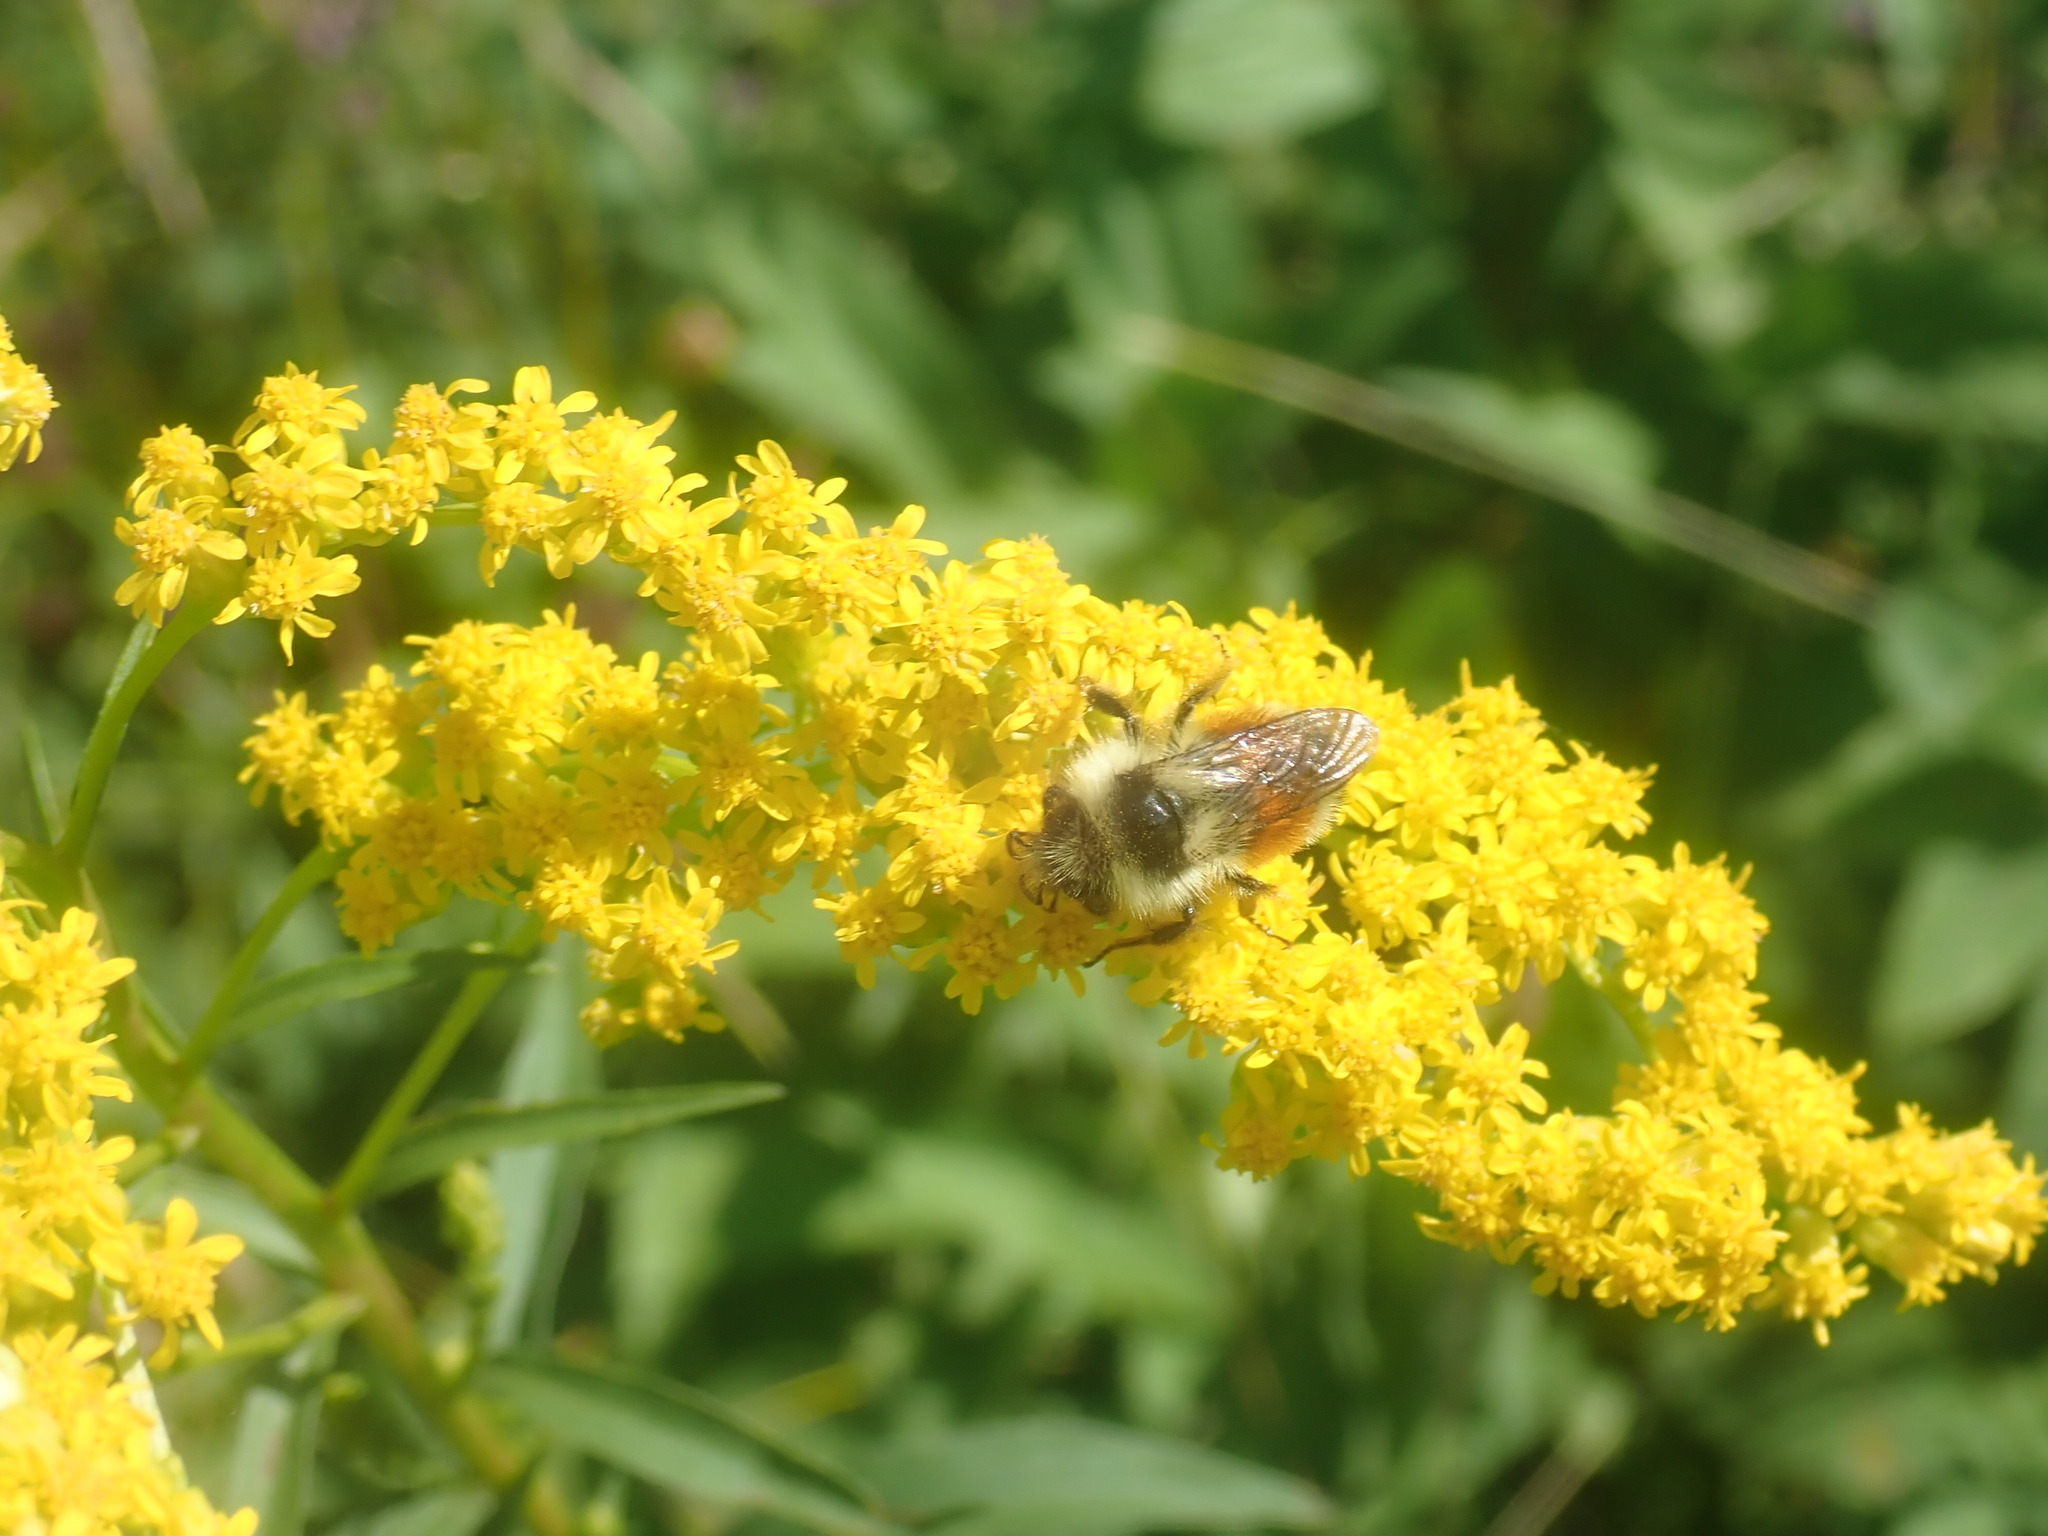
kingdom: Animalia
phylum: Arthropoda
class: Insecta
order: Hymenoptera
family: Apidae
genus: Bombus
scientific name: Bombus ternarius
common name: Tri-colored bumble bee
